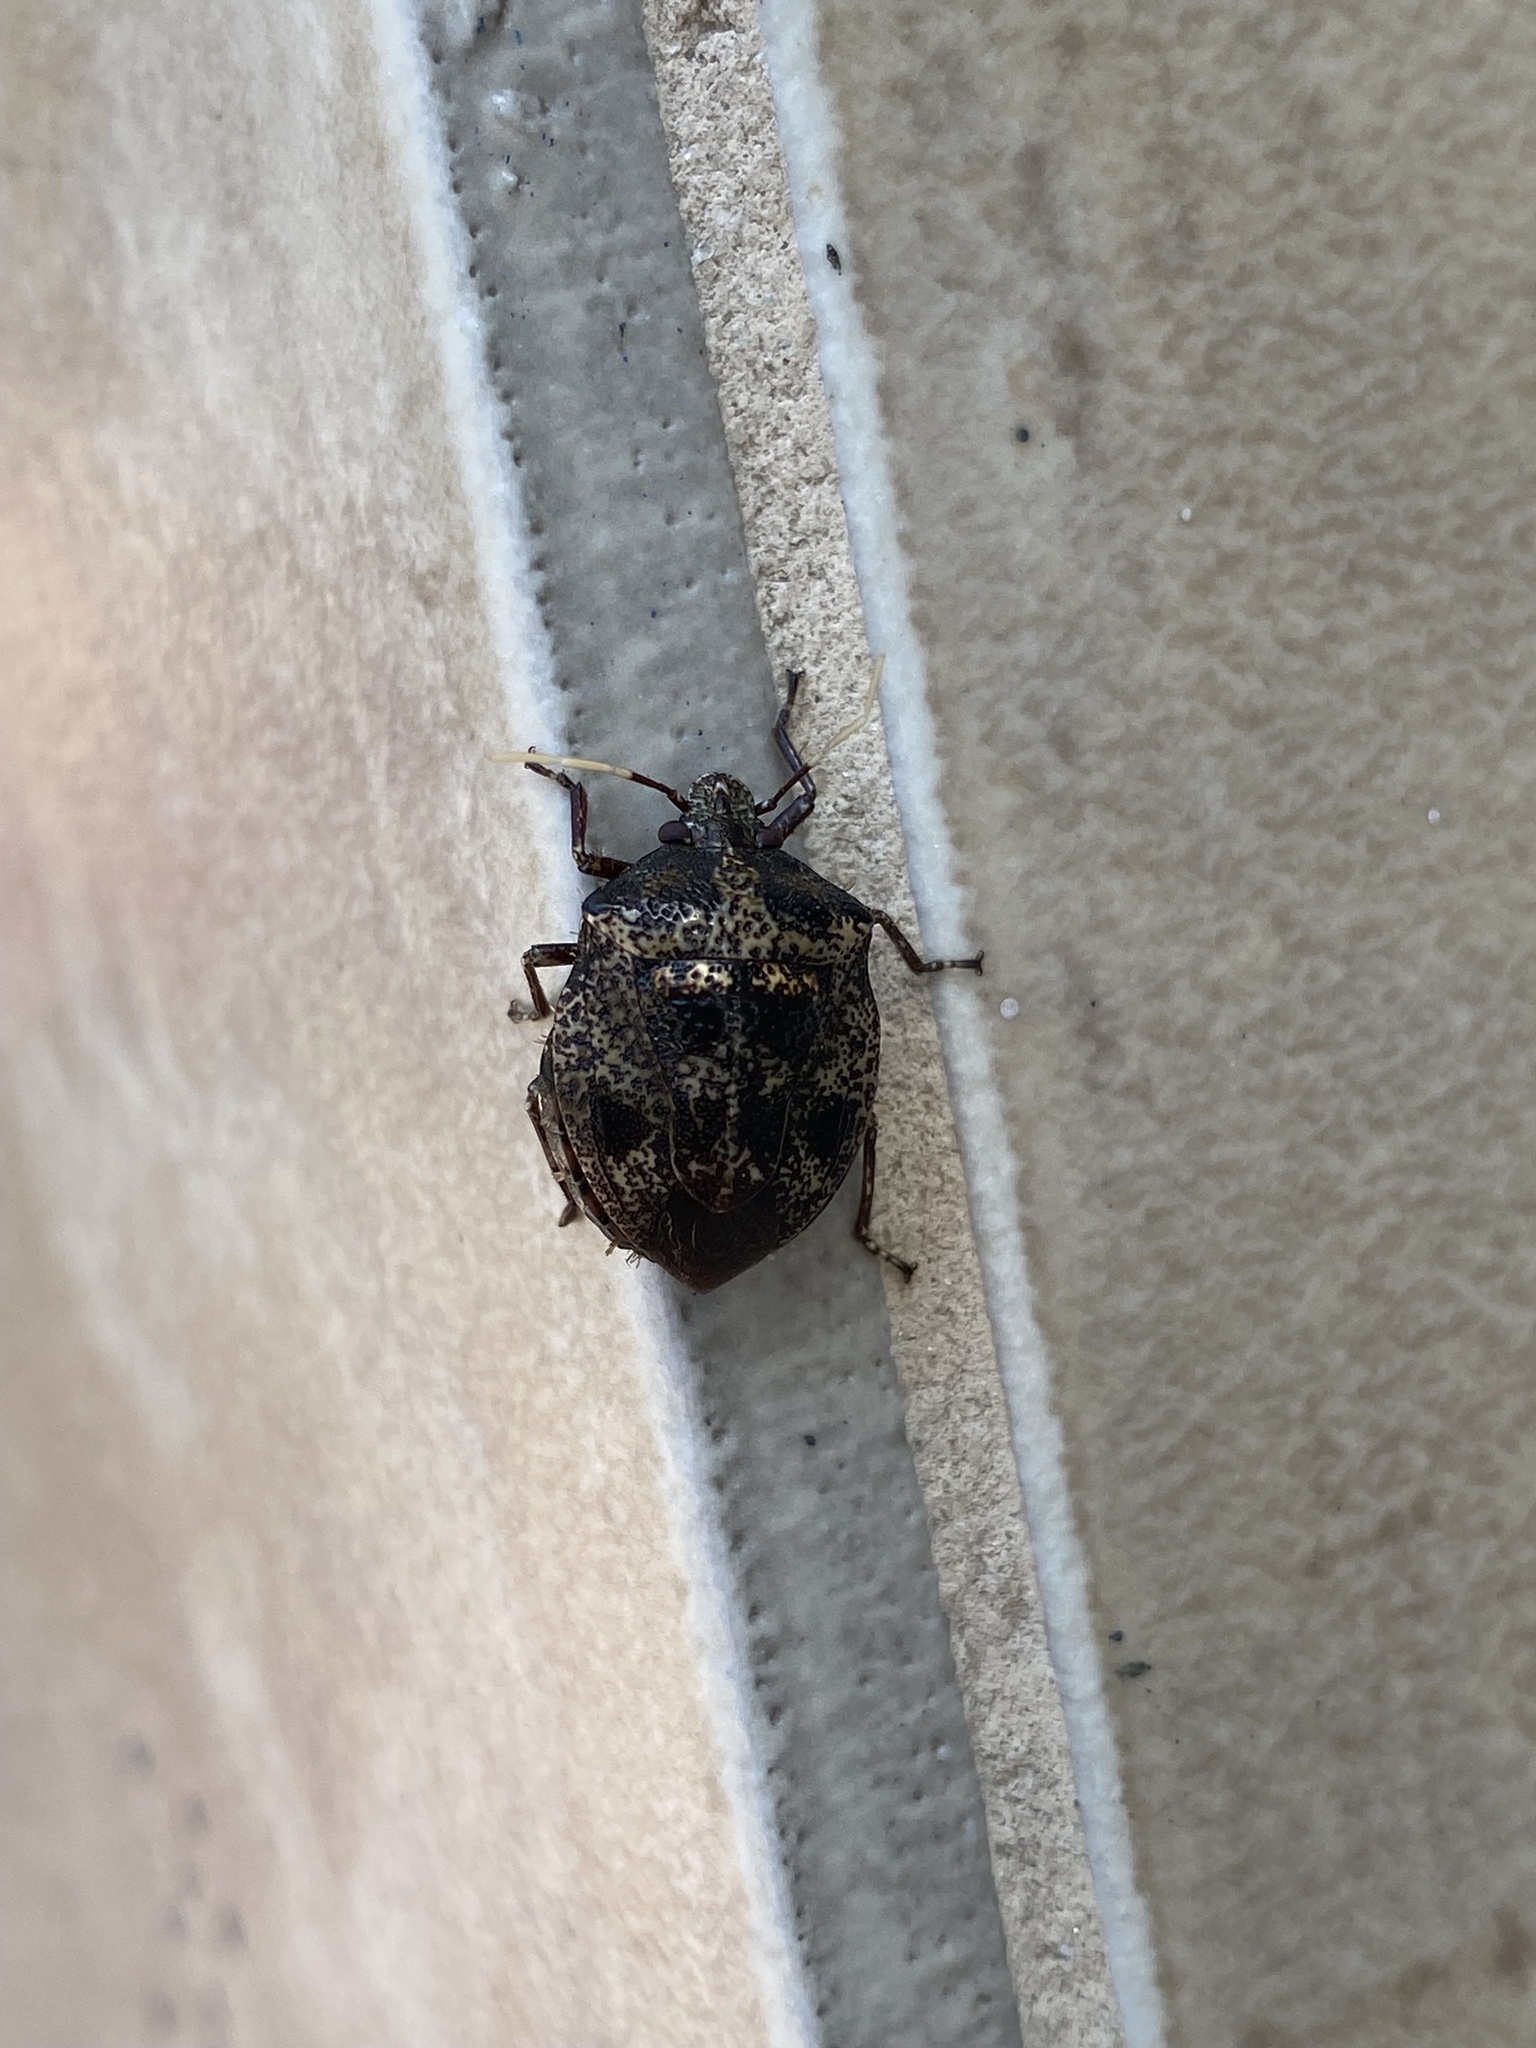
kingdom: Animalia
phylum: Arthropoda
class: Insecta
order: Hemiptera
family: Pentatomidae
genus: Antiteuchus
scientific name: Antiteuchus mixtus
